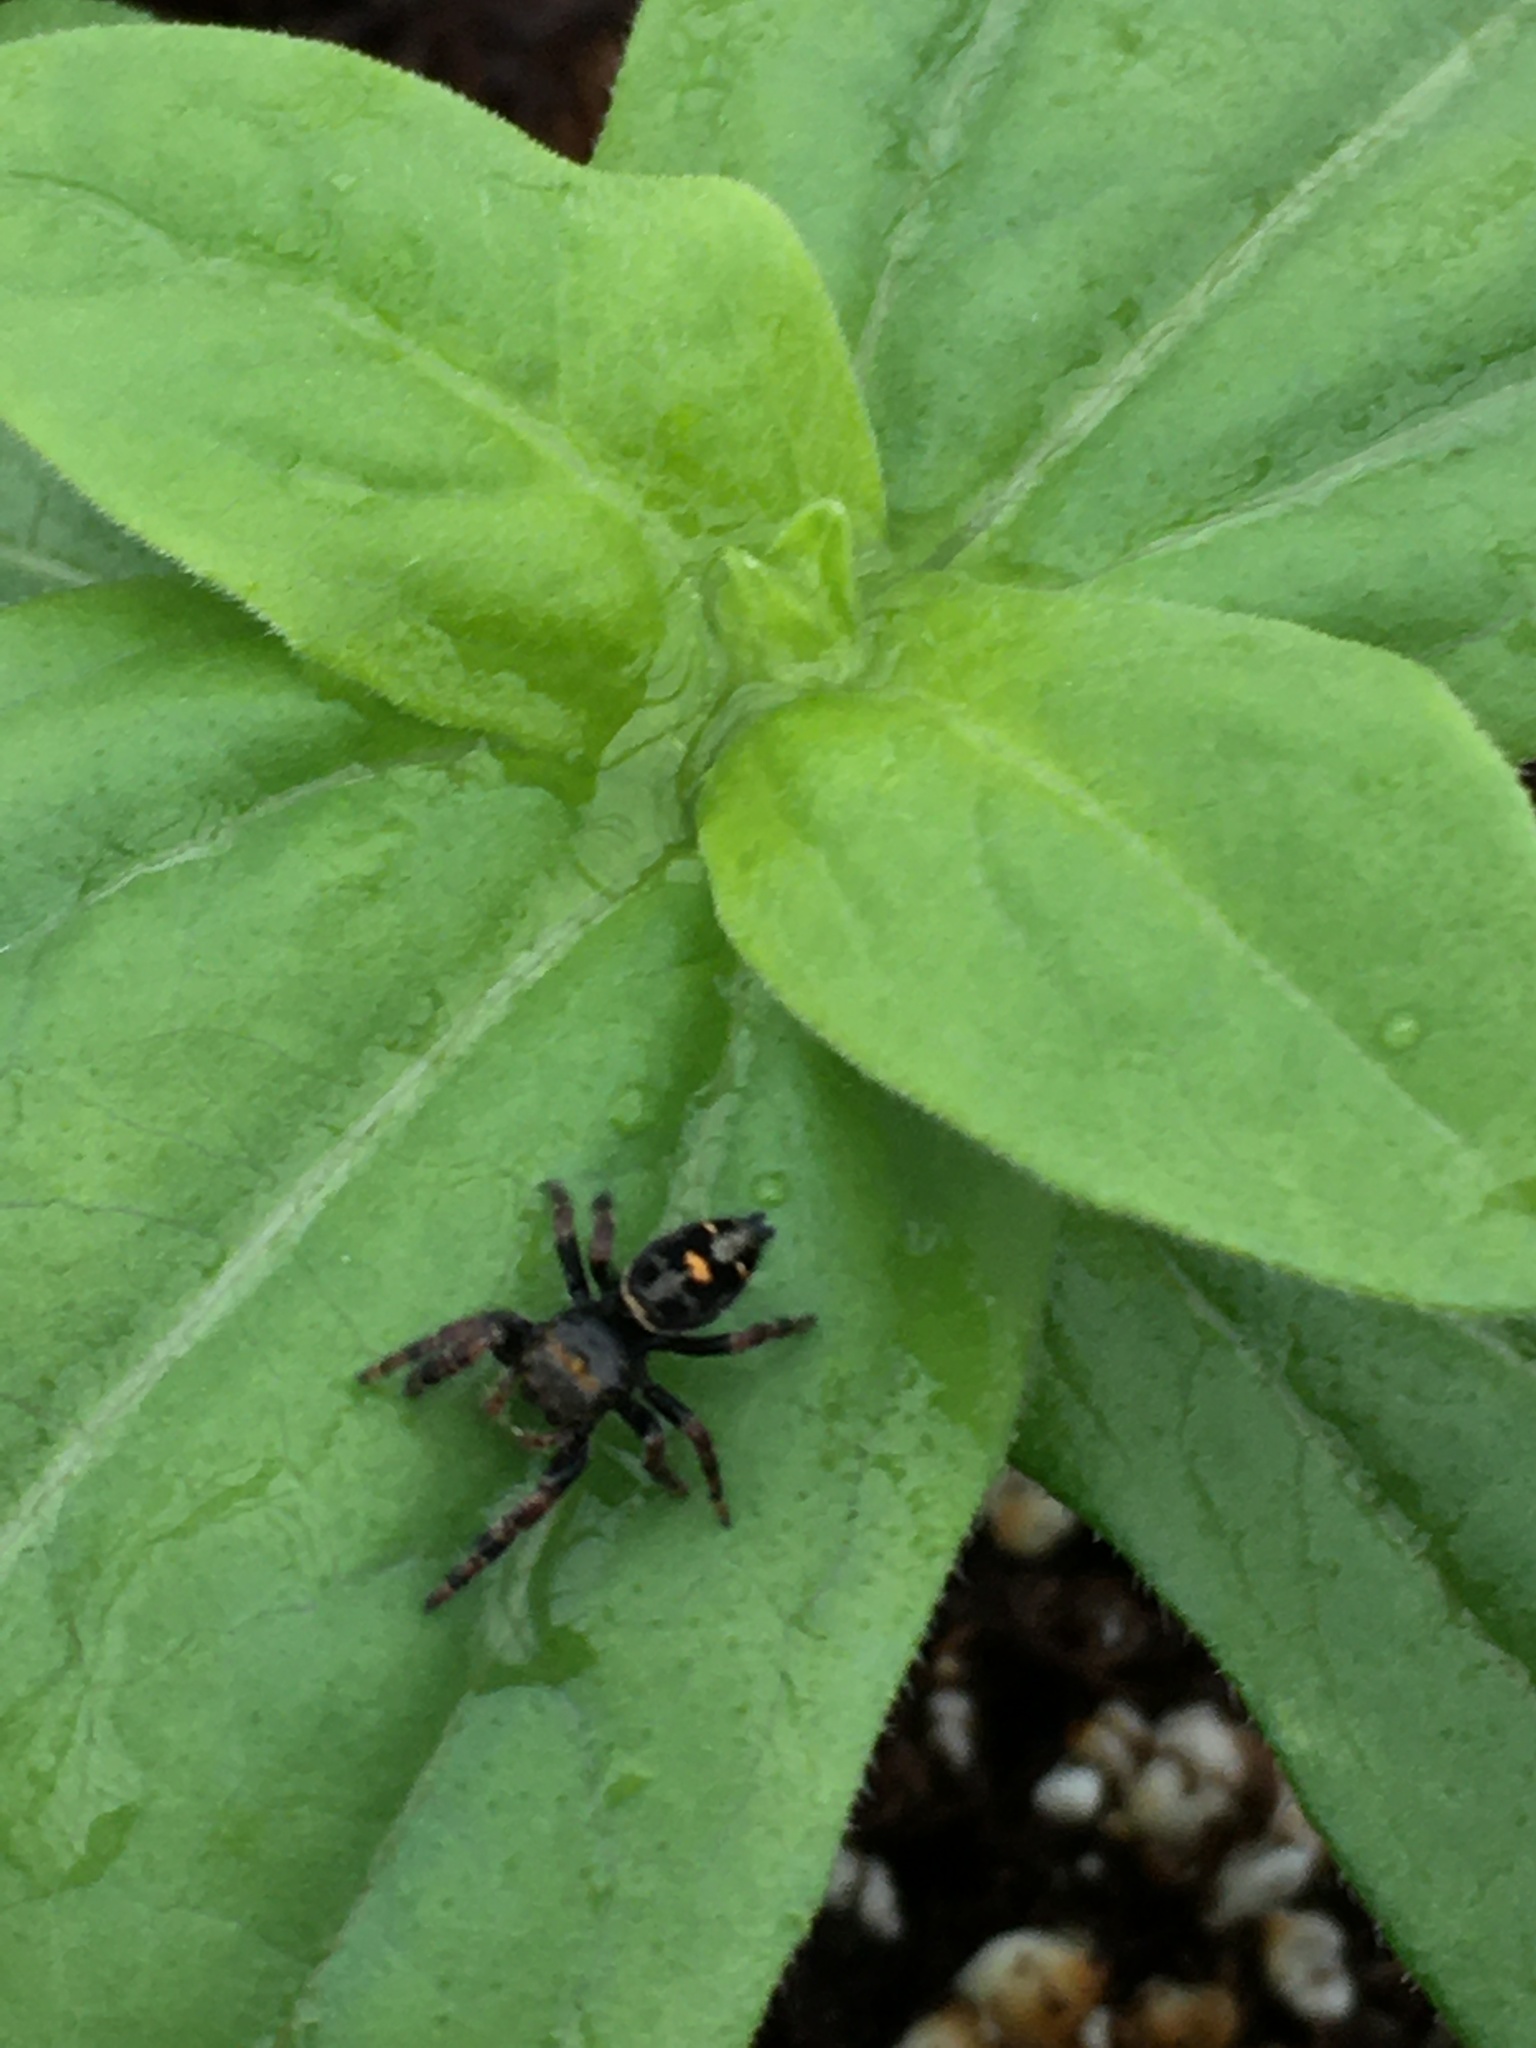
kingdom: Animalia
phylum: Arthropoda
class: Arachnida
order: Araneae
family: Salticidae
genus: Phidippus
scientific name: Phidippus audax
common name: Bold jumper
